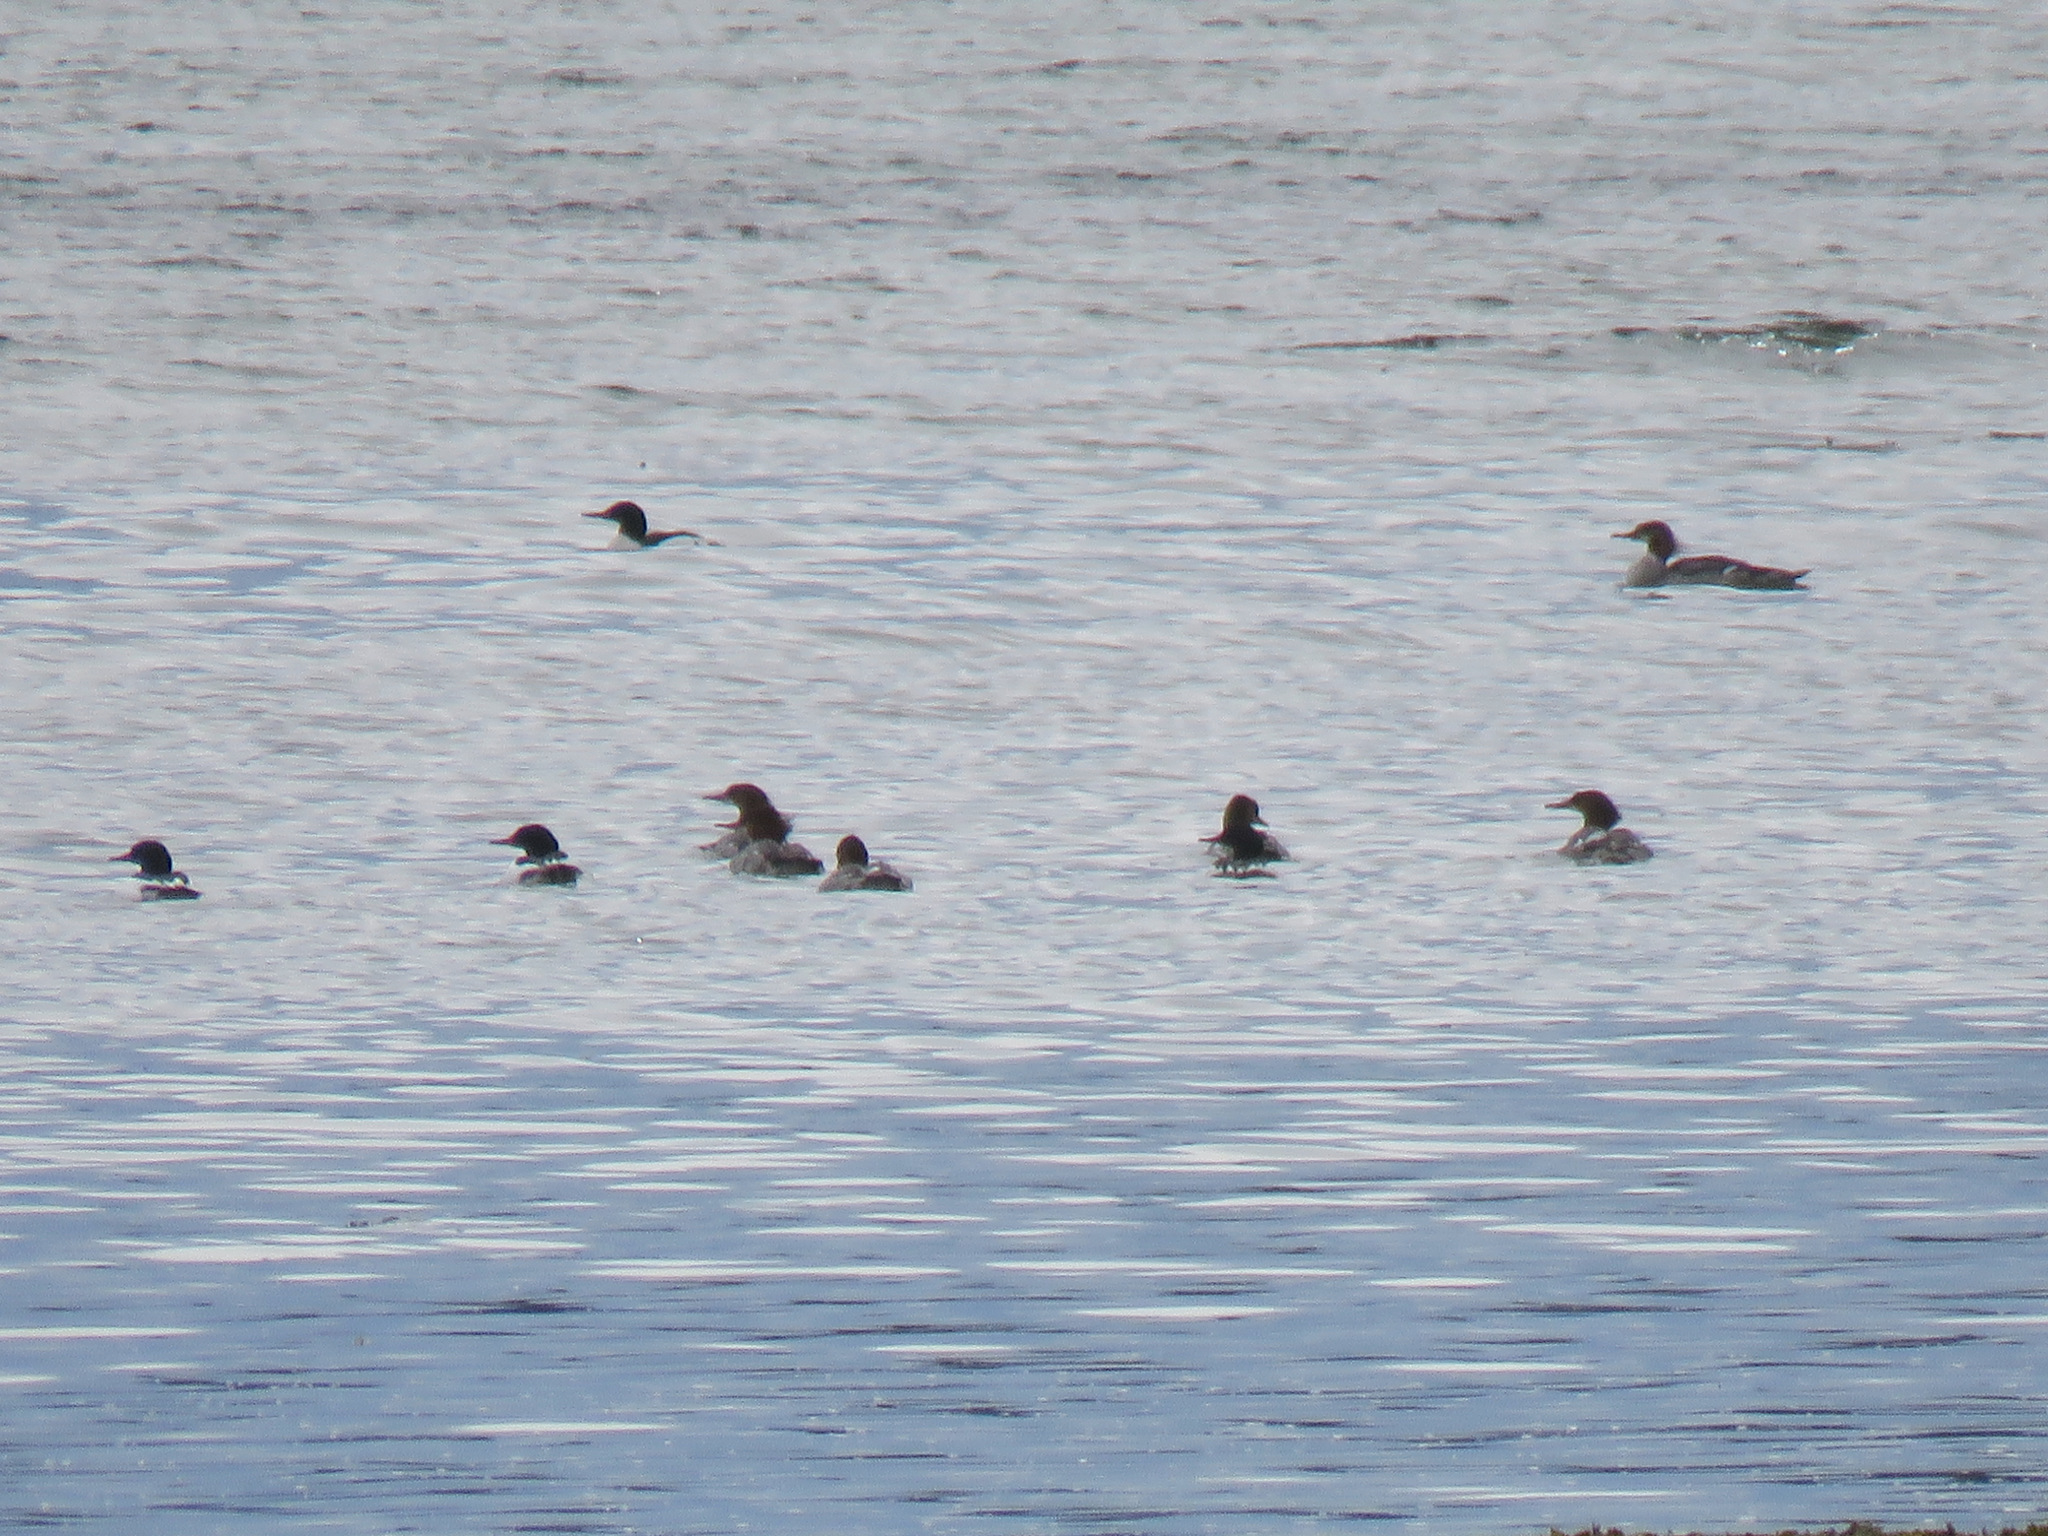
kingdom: Animalia
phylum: Chordata
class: Aves
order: Anseriformes
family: Anatidae
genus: Mergus
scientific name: Mergus merganser
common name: Common merganser
